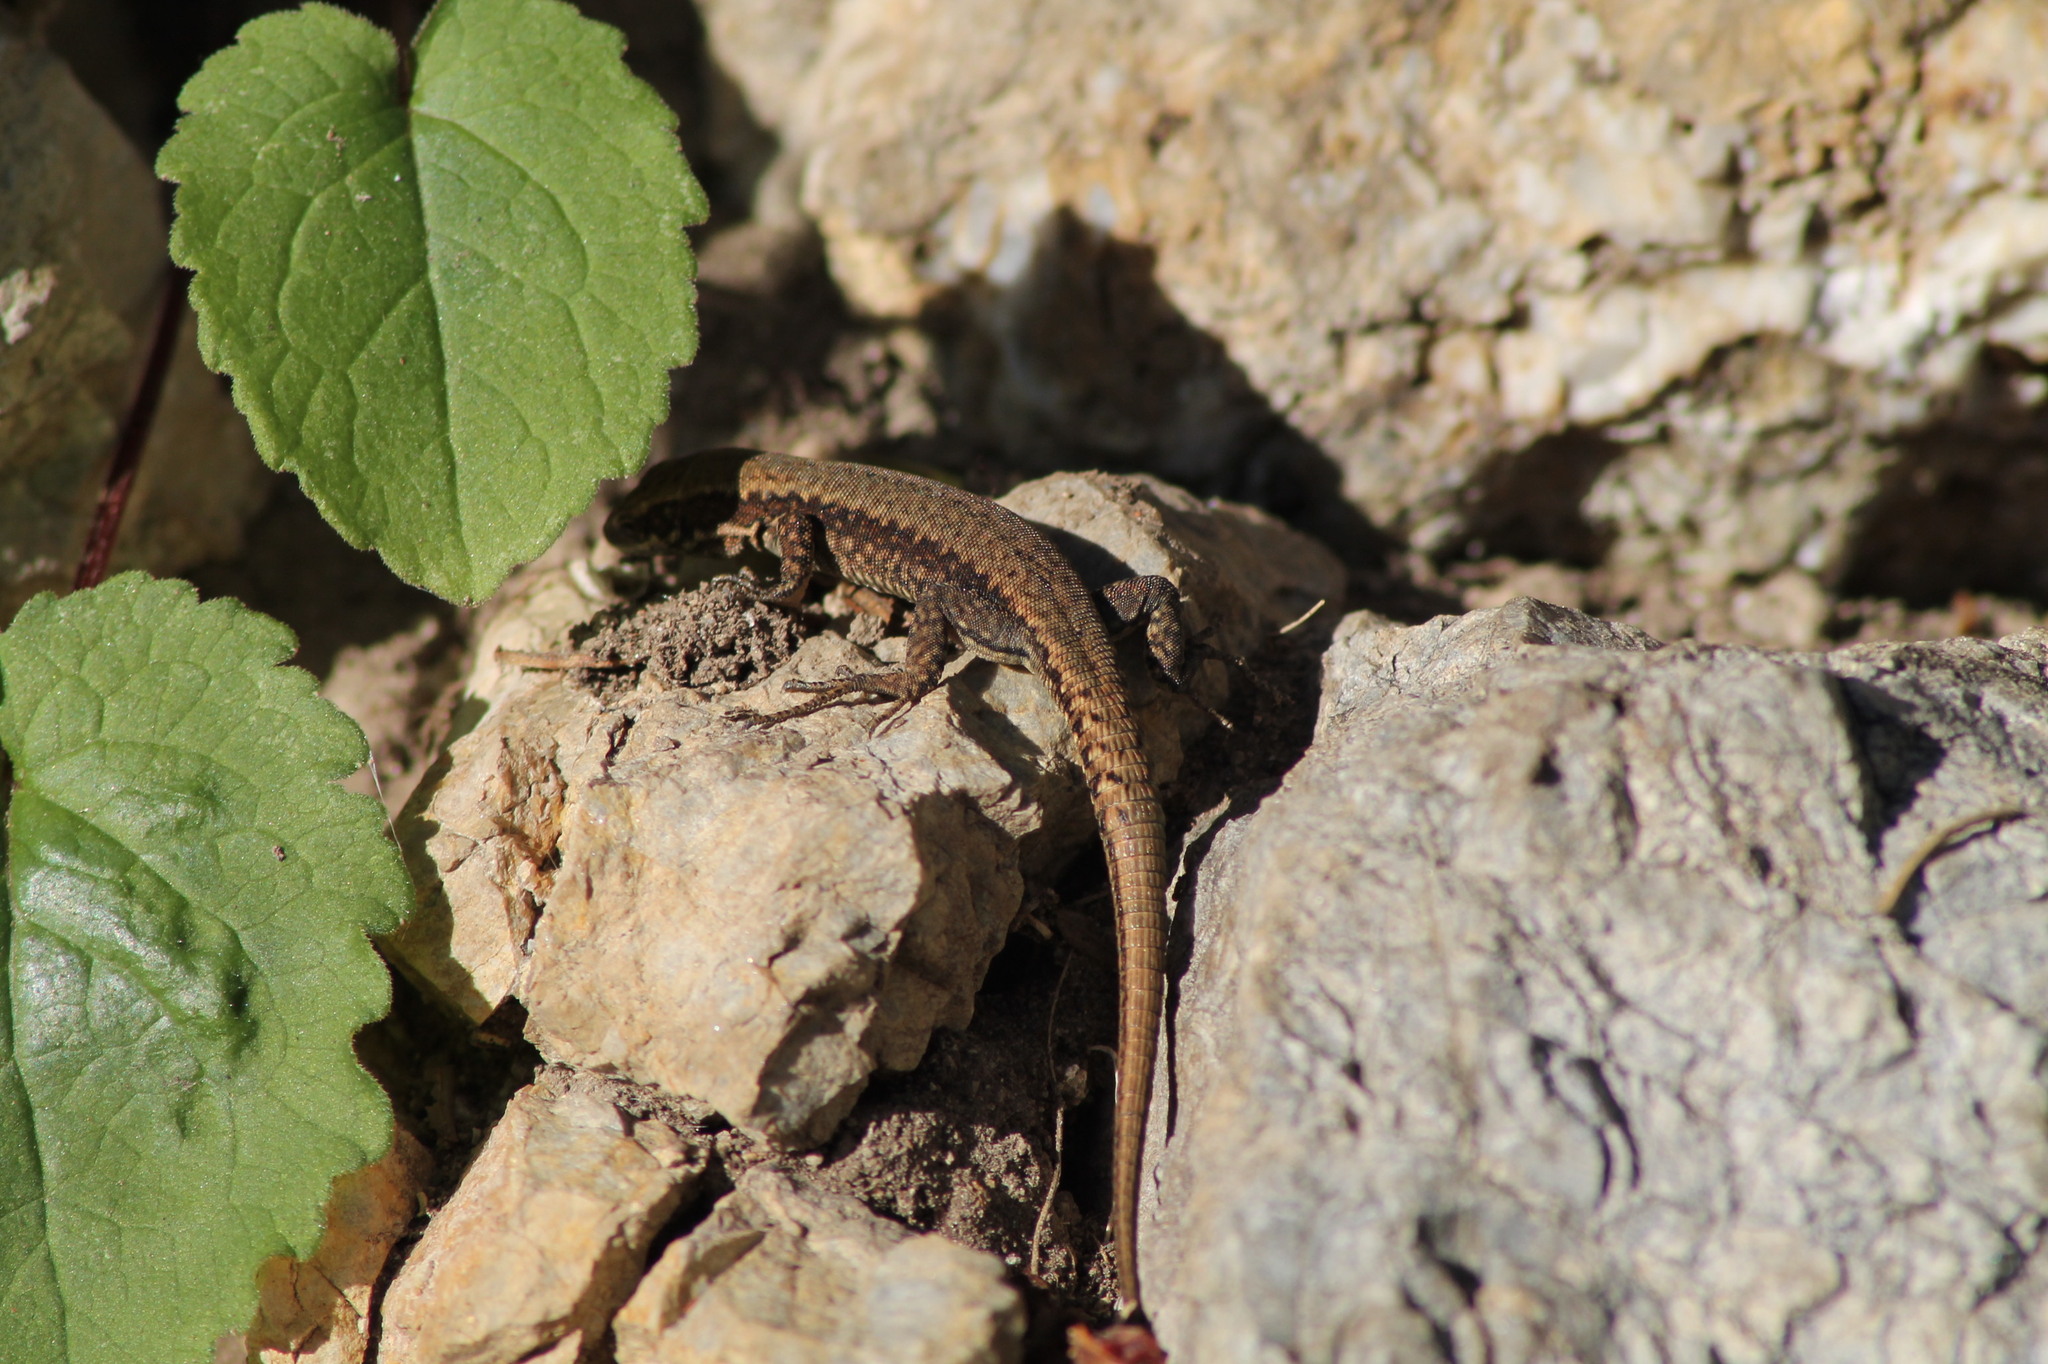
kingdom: Animalia
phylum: Chordata
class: Squamata
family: Lacertidae
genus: Podarcis
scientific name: Podarcis muralis
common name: Common wall lizard
